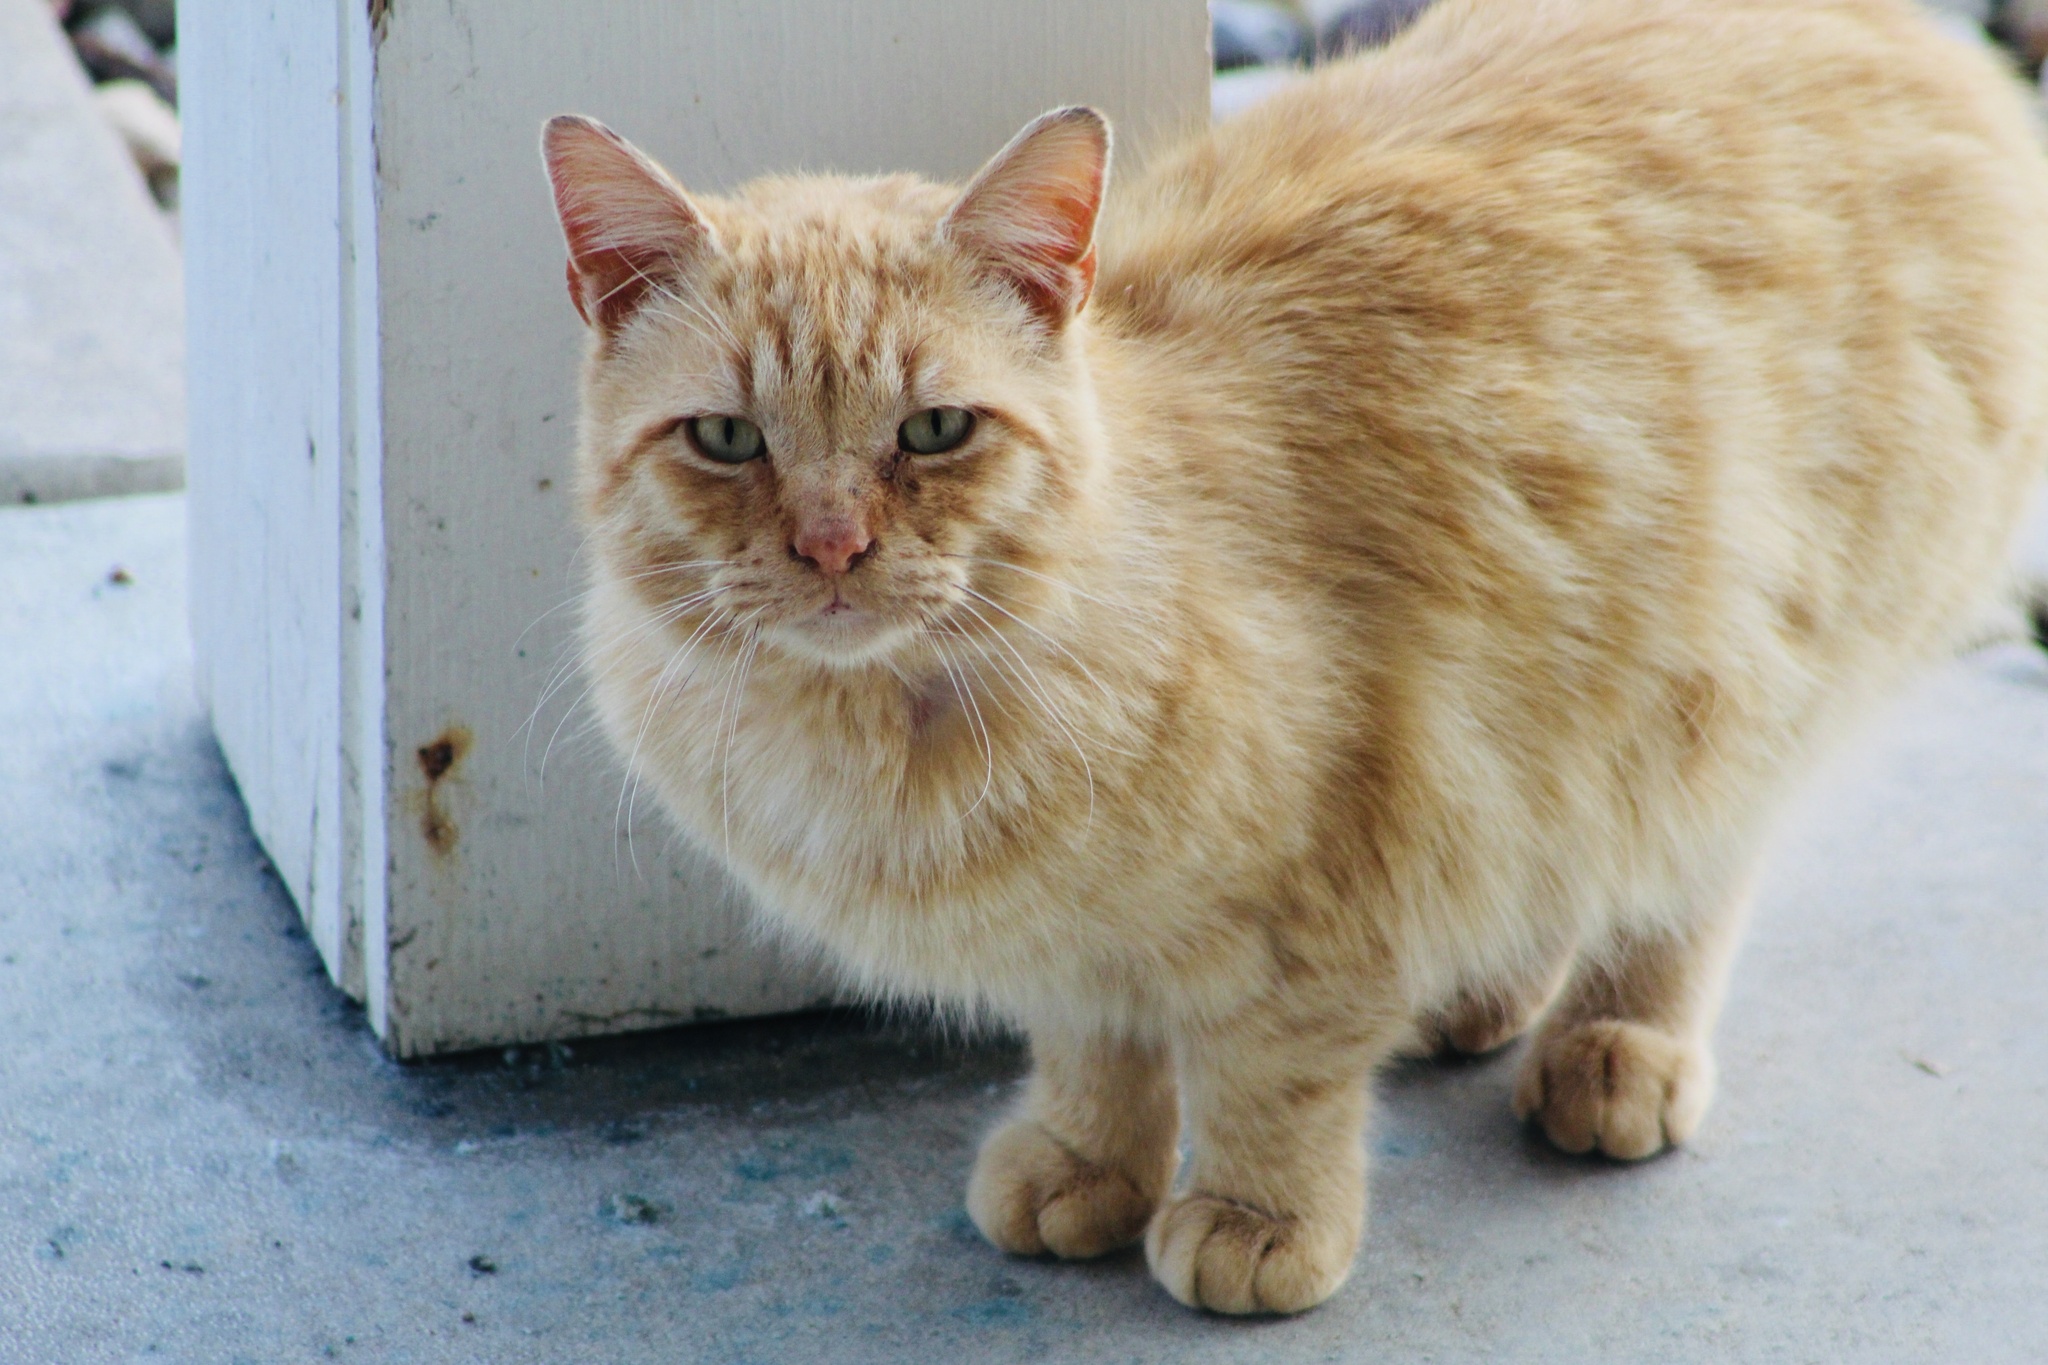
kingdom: Animalia
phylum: Chordata
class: Mammalia
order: Carnivora
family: Felidae
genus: Felis
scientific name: Felis catus
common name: Domestic cat
